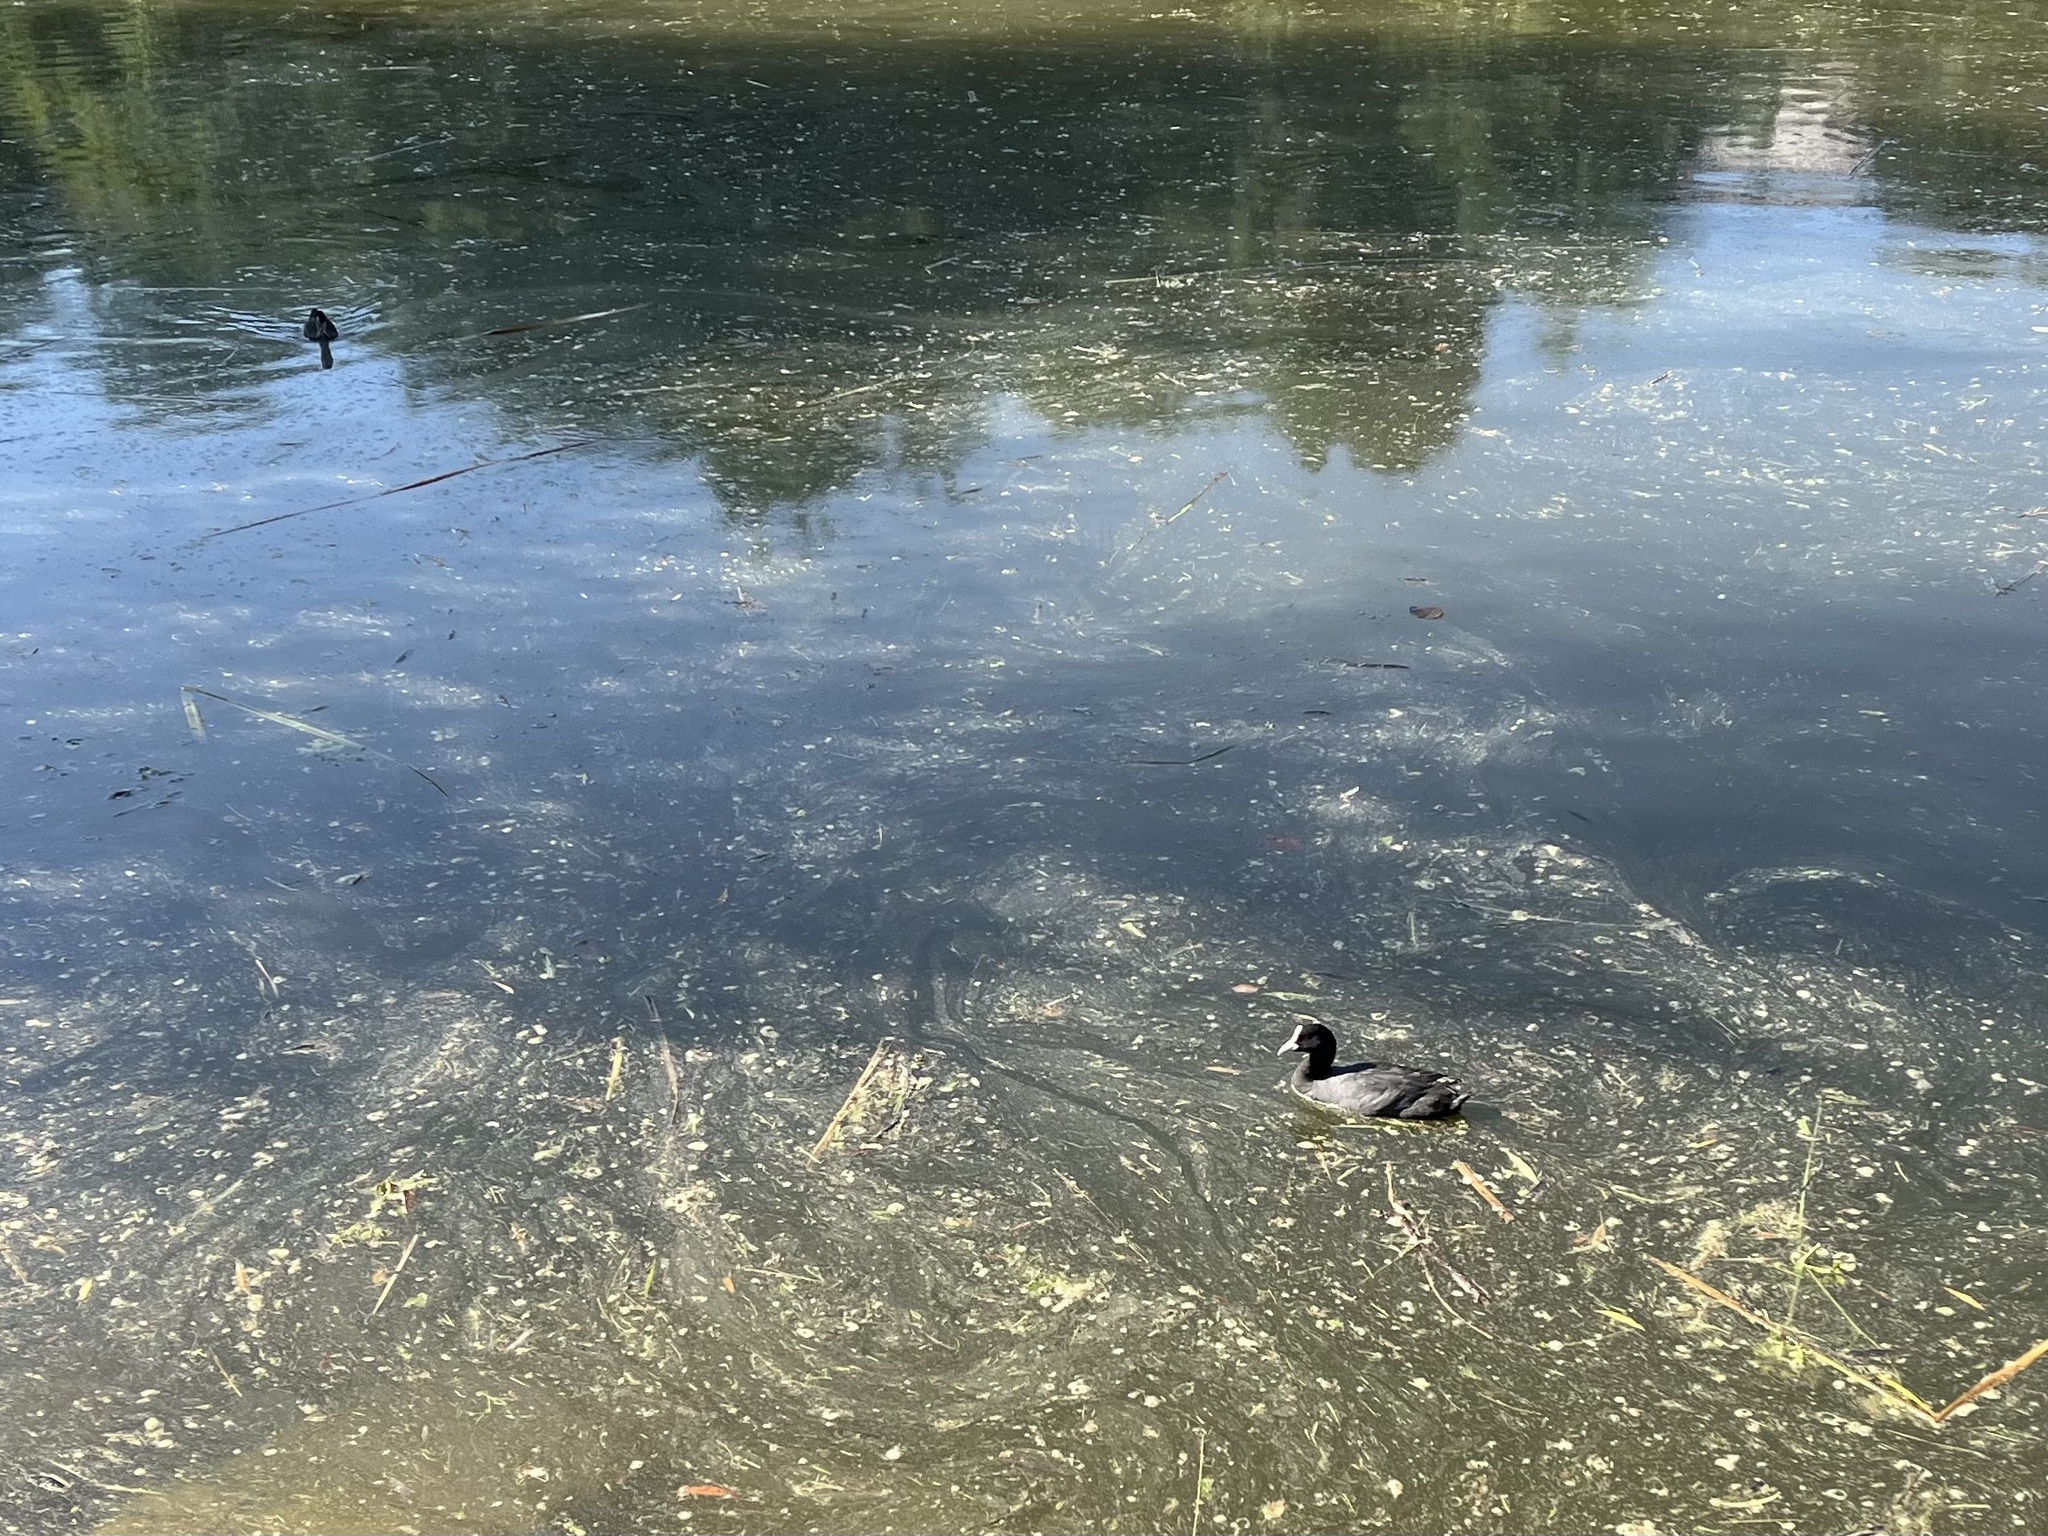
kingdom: Animalia
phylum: Chordata
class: Aves
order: Gruiformes
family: Rallidae
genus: Fulica
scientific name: Fulica atra
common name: Eurasian coot
